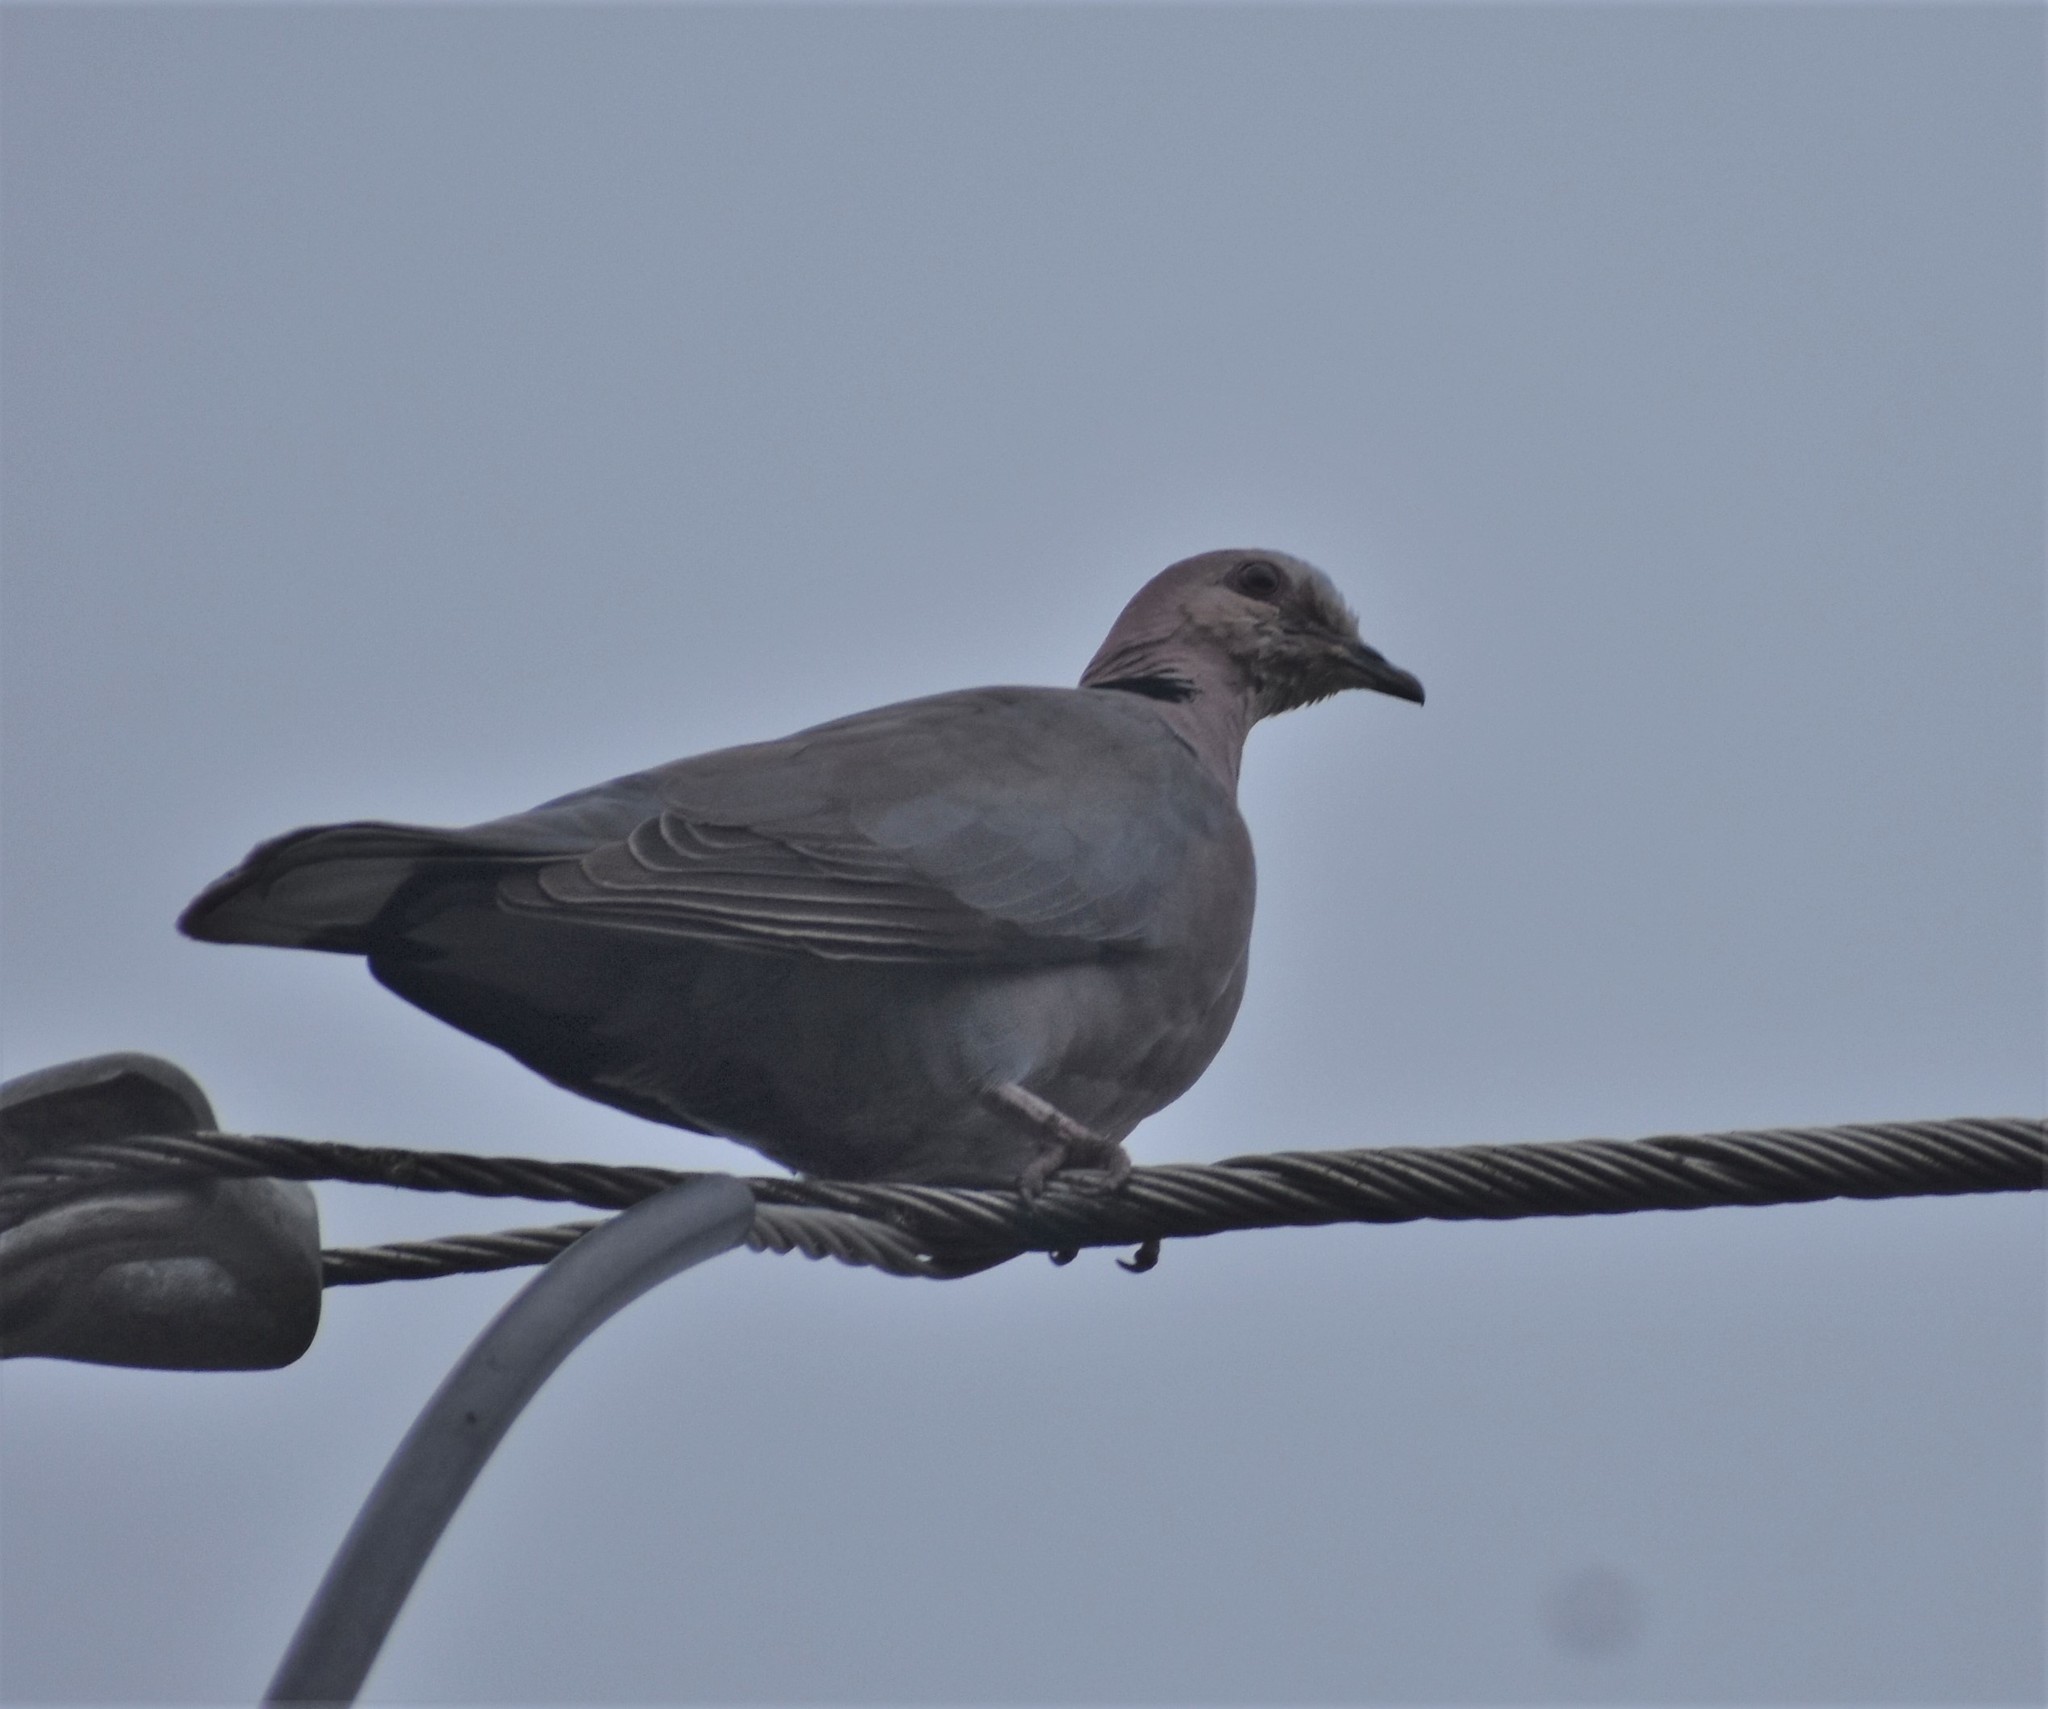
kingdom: Animalia
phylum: Chordata
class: Aves
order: Columbiformes
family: Columbidae
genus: Streptopelia
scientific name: Streptopelia semitorquata
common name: Red-eyed dove
